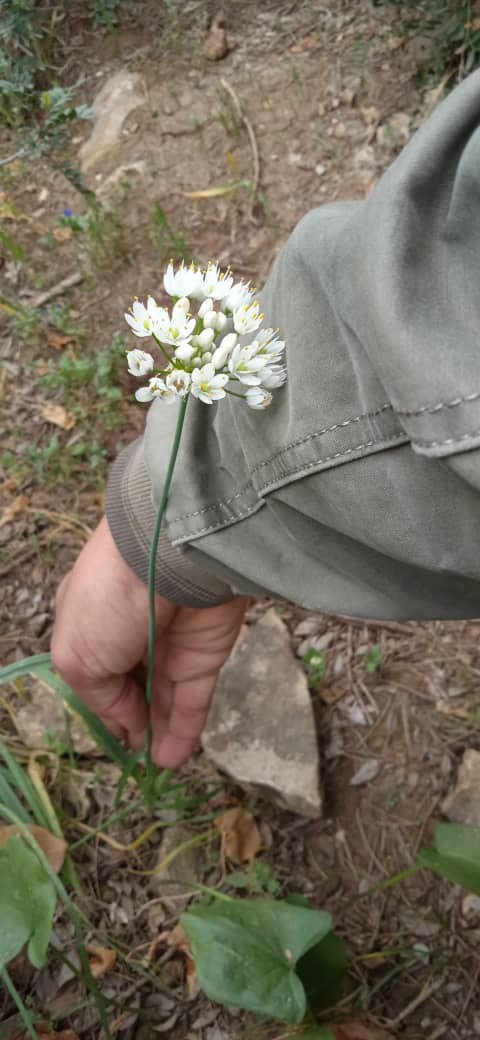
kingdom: Plantae
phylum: Tracheophyta
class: Liliopsida
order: Asparagales
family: Amaryllidaceae
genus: Allium
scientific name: Allium subvillosum
